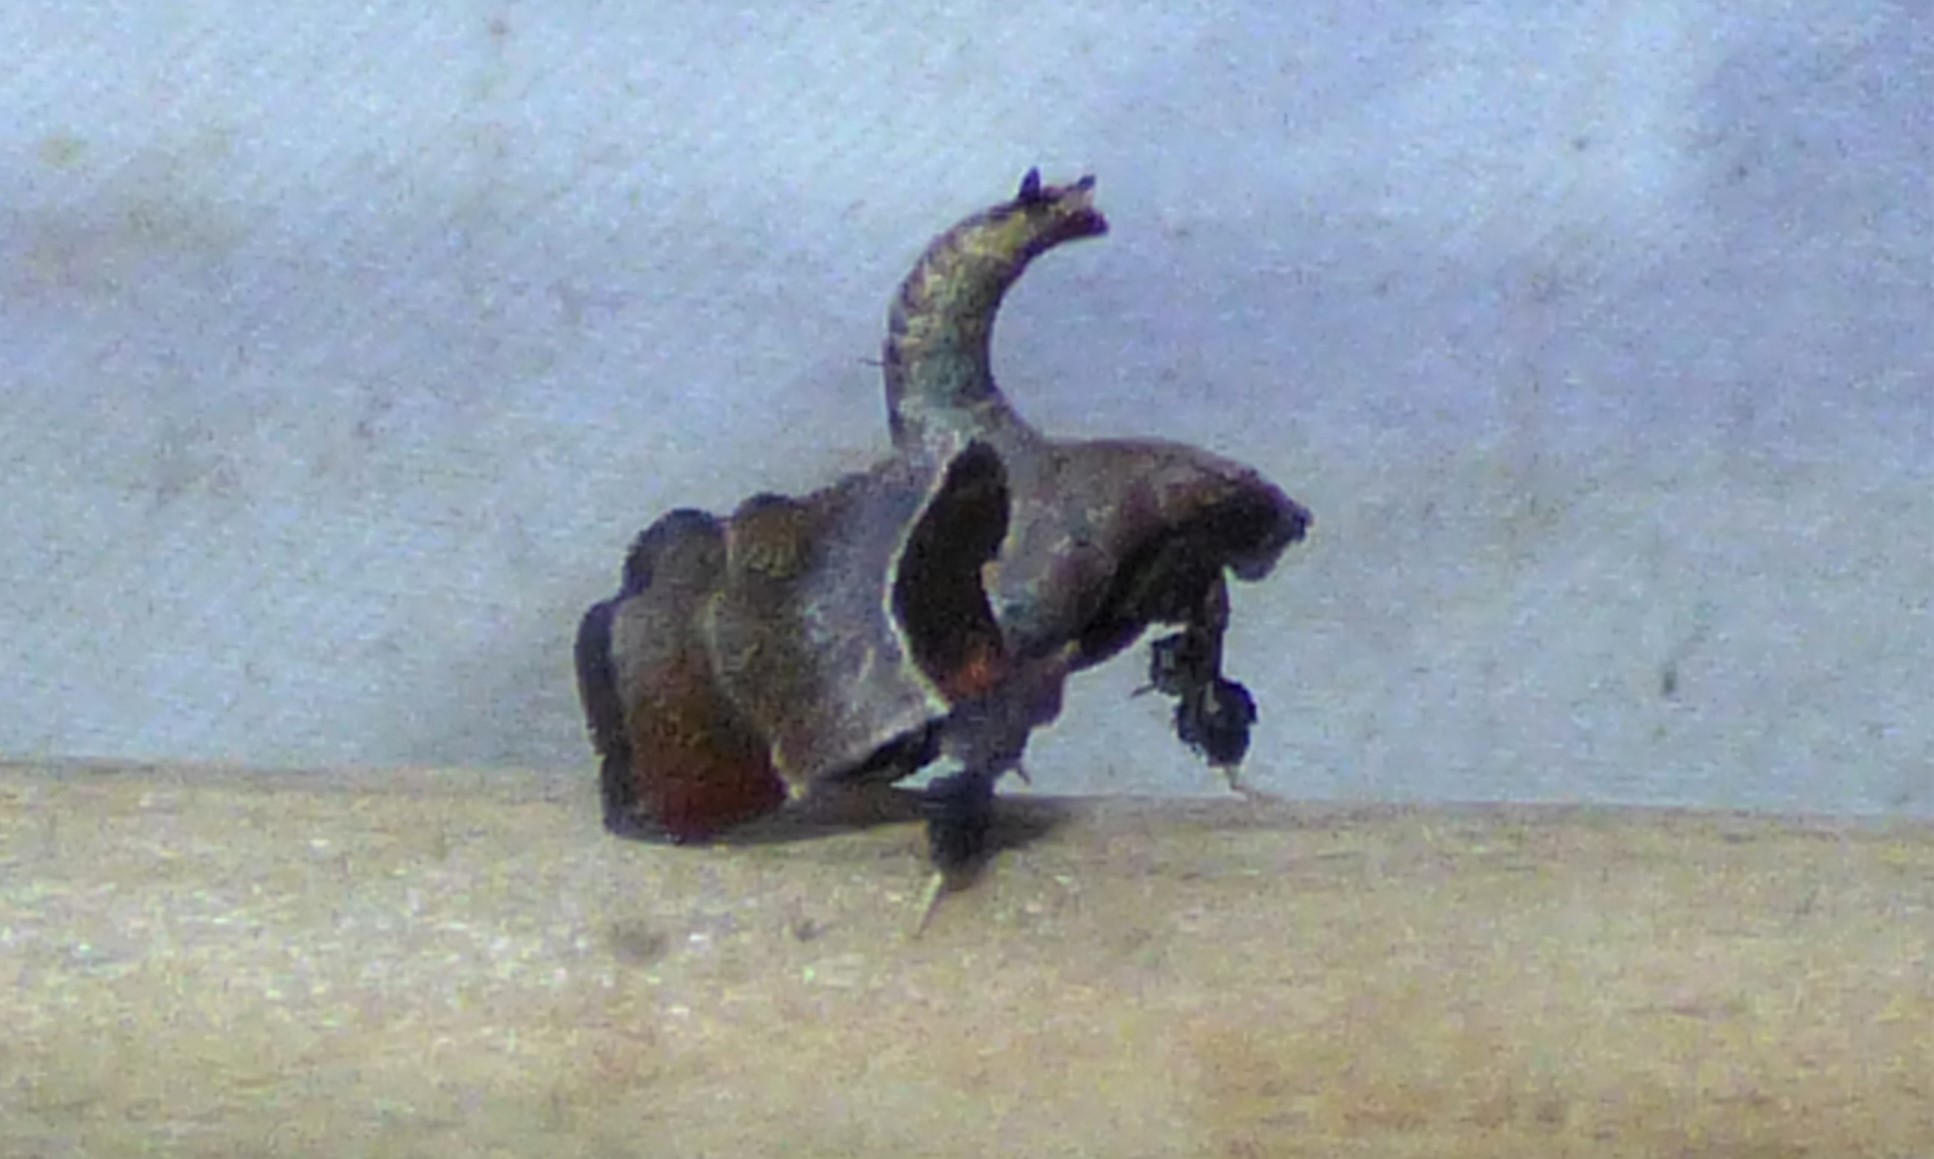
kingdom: Animalia
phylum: Arthropoda
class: Insecta
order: Lepidoptera
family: Pyralidae
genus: Tosale
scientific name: Tosale oviplagalis
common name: Dimorphic tosale moth
